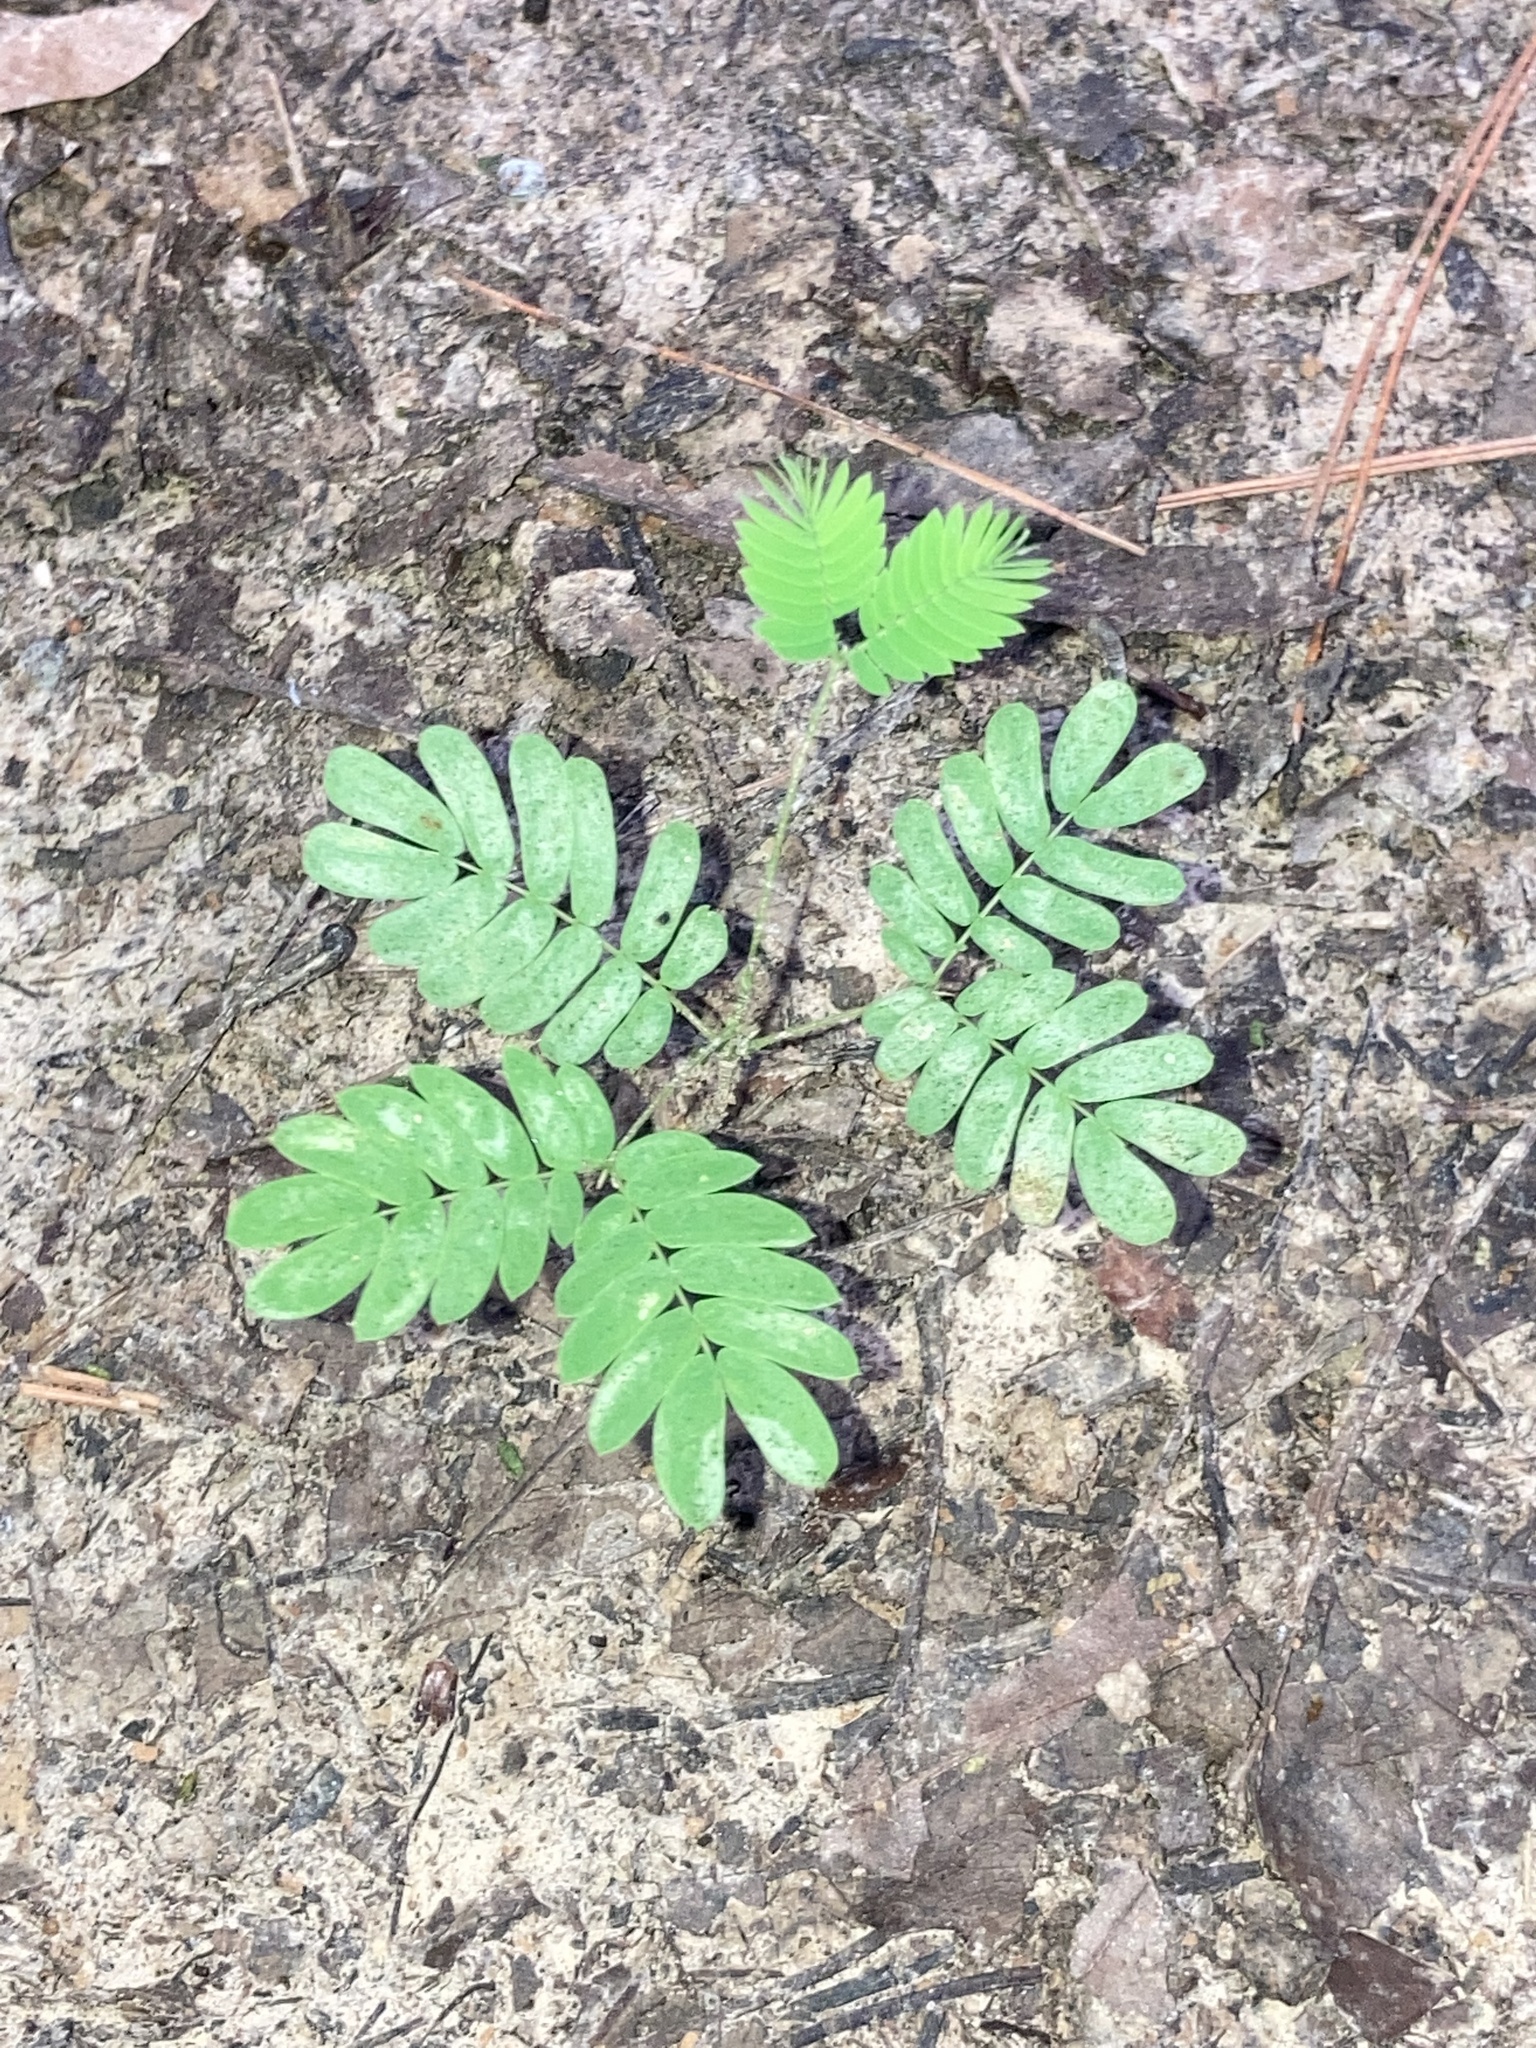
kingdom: Plantae
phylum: Tracheophyta
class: Magnoliopsida
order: Fabales
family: Fabaceae
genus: Albizia
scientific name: Albizia julibrissin
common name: Silktree
